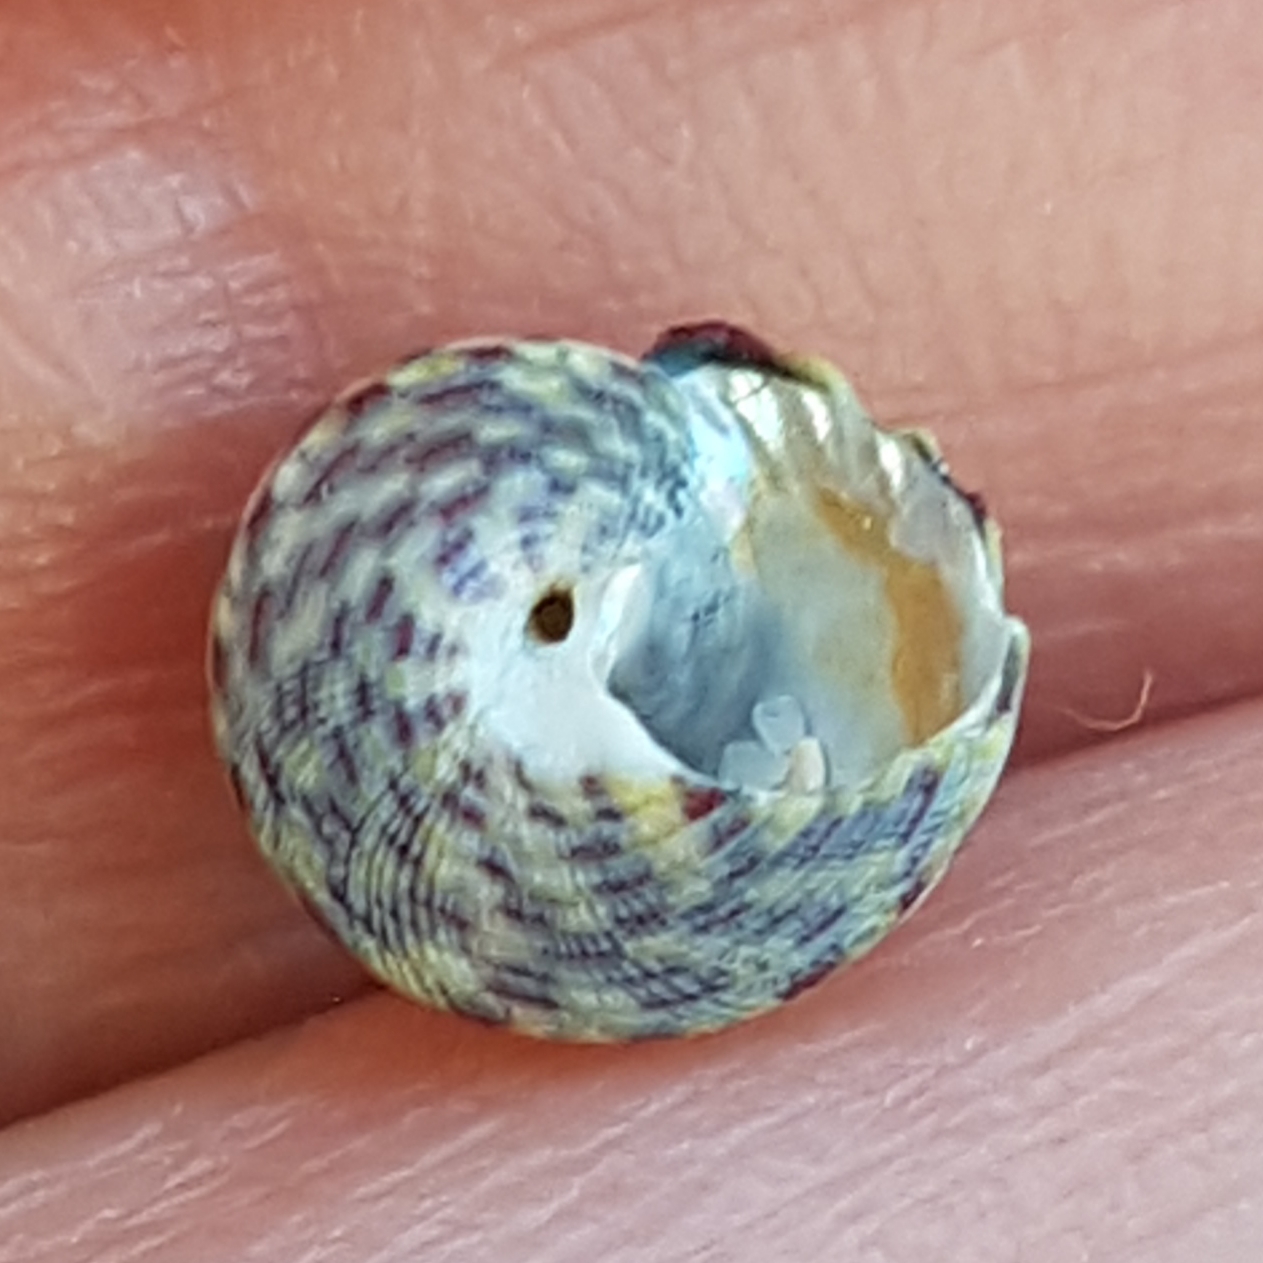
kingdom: Animalia
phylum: Mollusca
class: Gastropoda
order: Trochida
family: Trochidae
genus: Steromphala
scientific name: Steromphala umbilicalis
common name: Flat top shell
